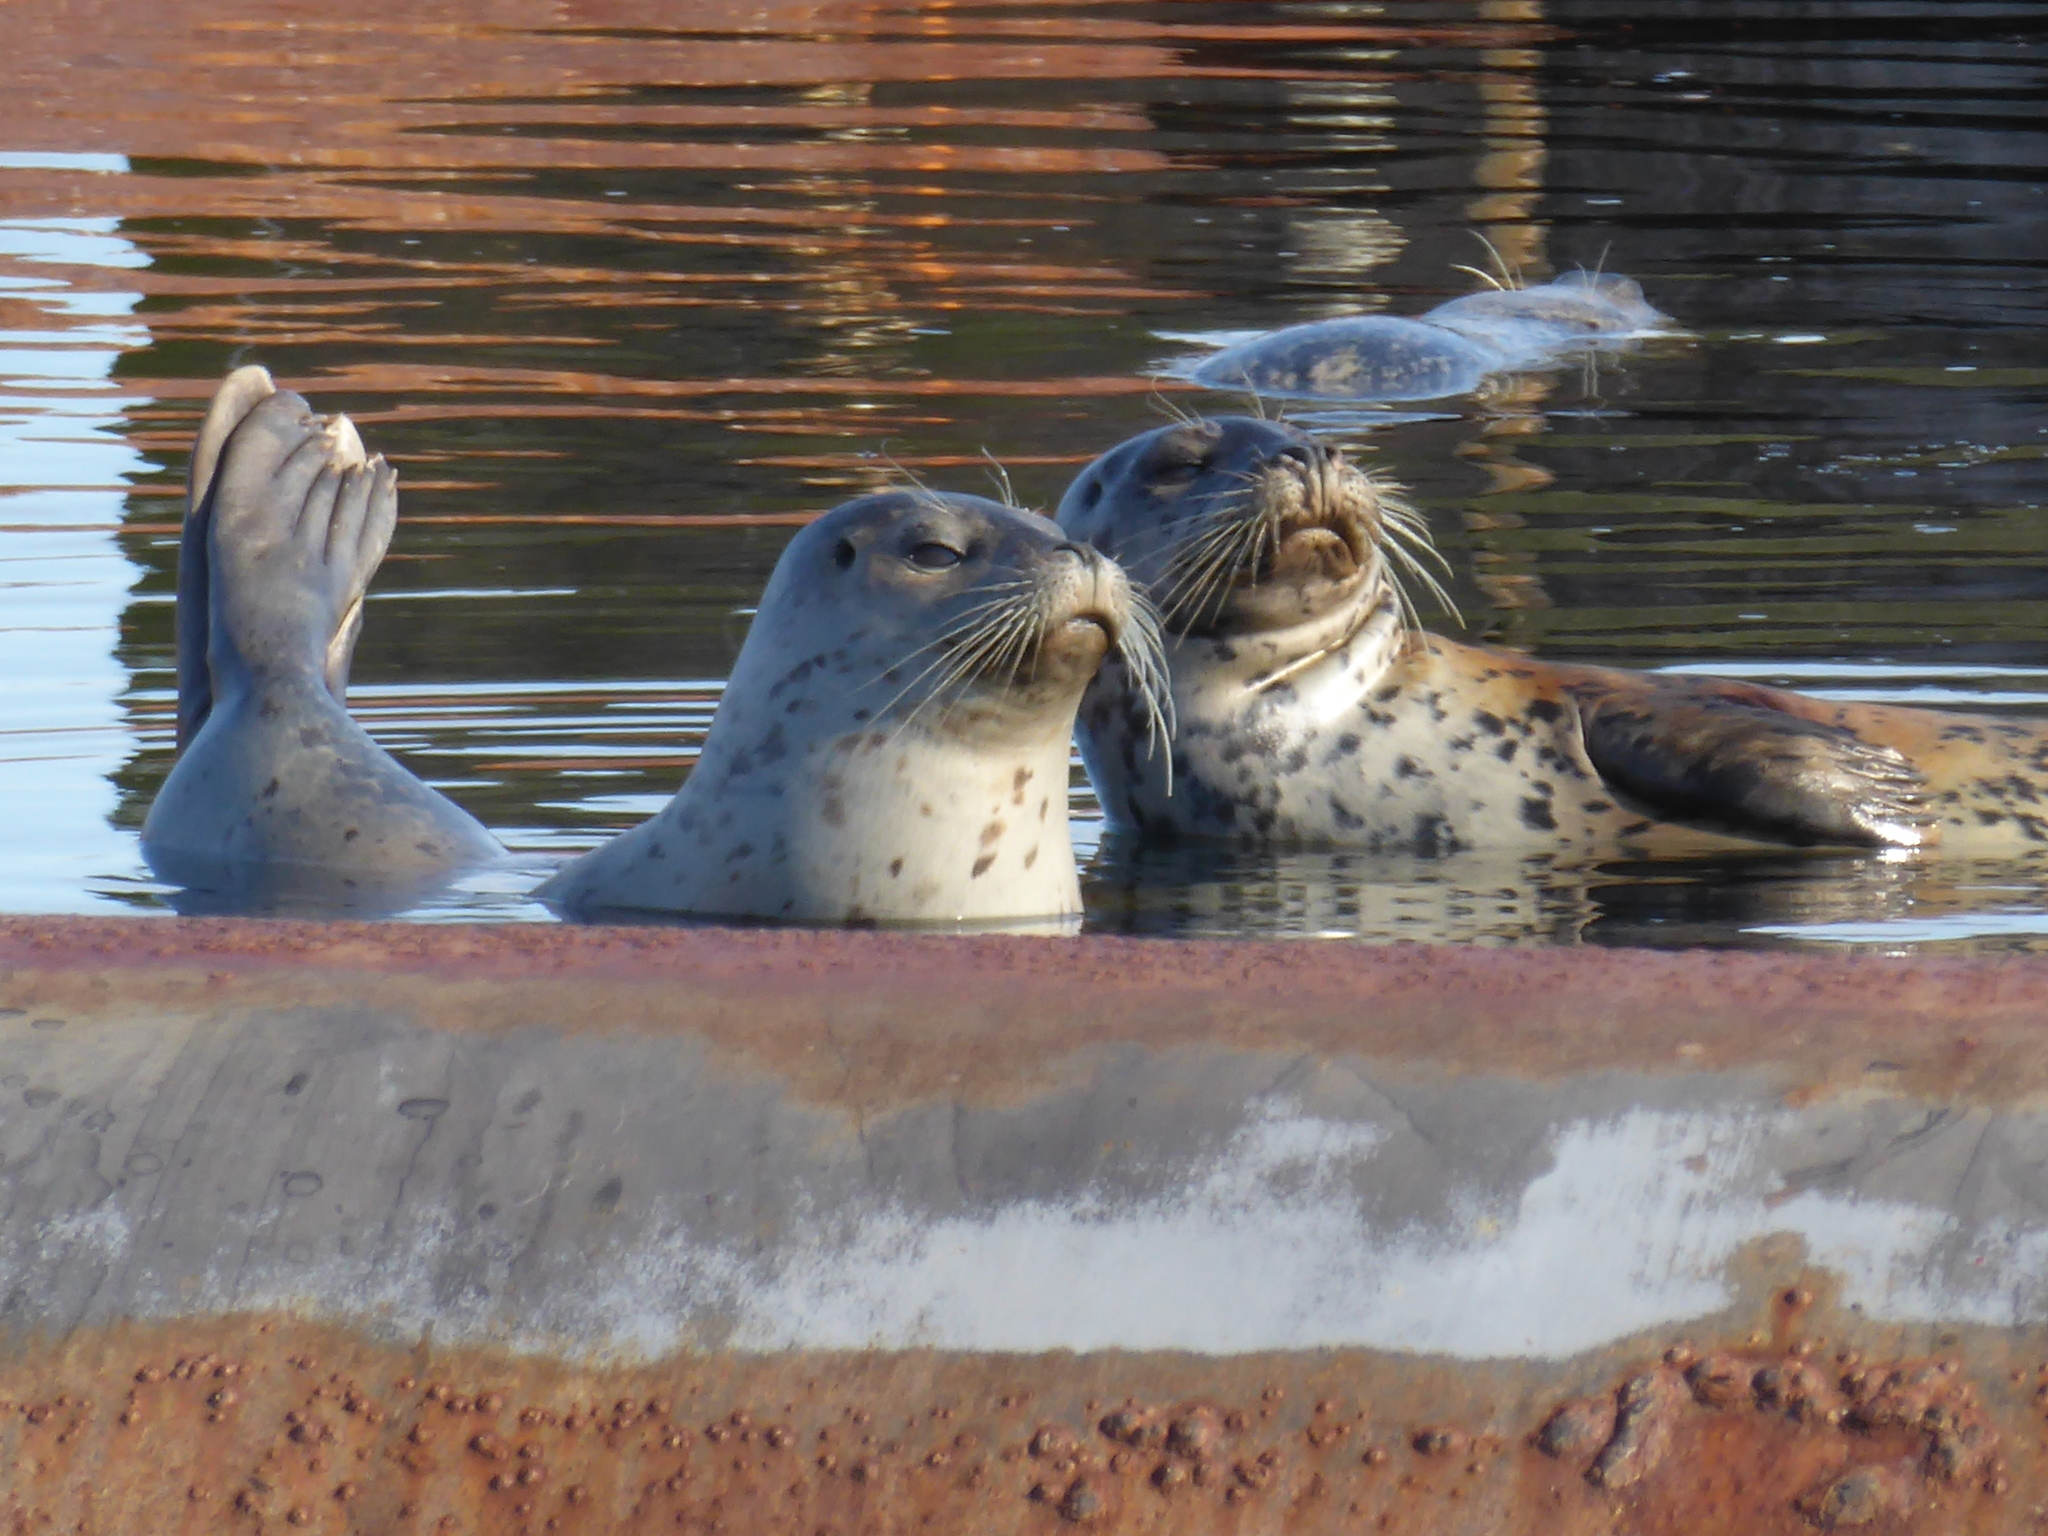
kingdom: Animalia
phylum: Chordata
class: Mammalia
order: Carnivora
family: Phocidae
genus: Phoca
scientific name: Phoca vitulina
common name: Harbor seal
